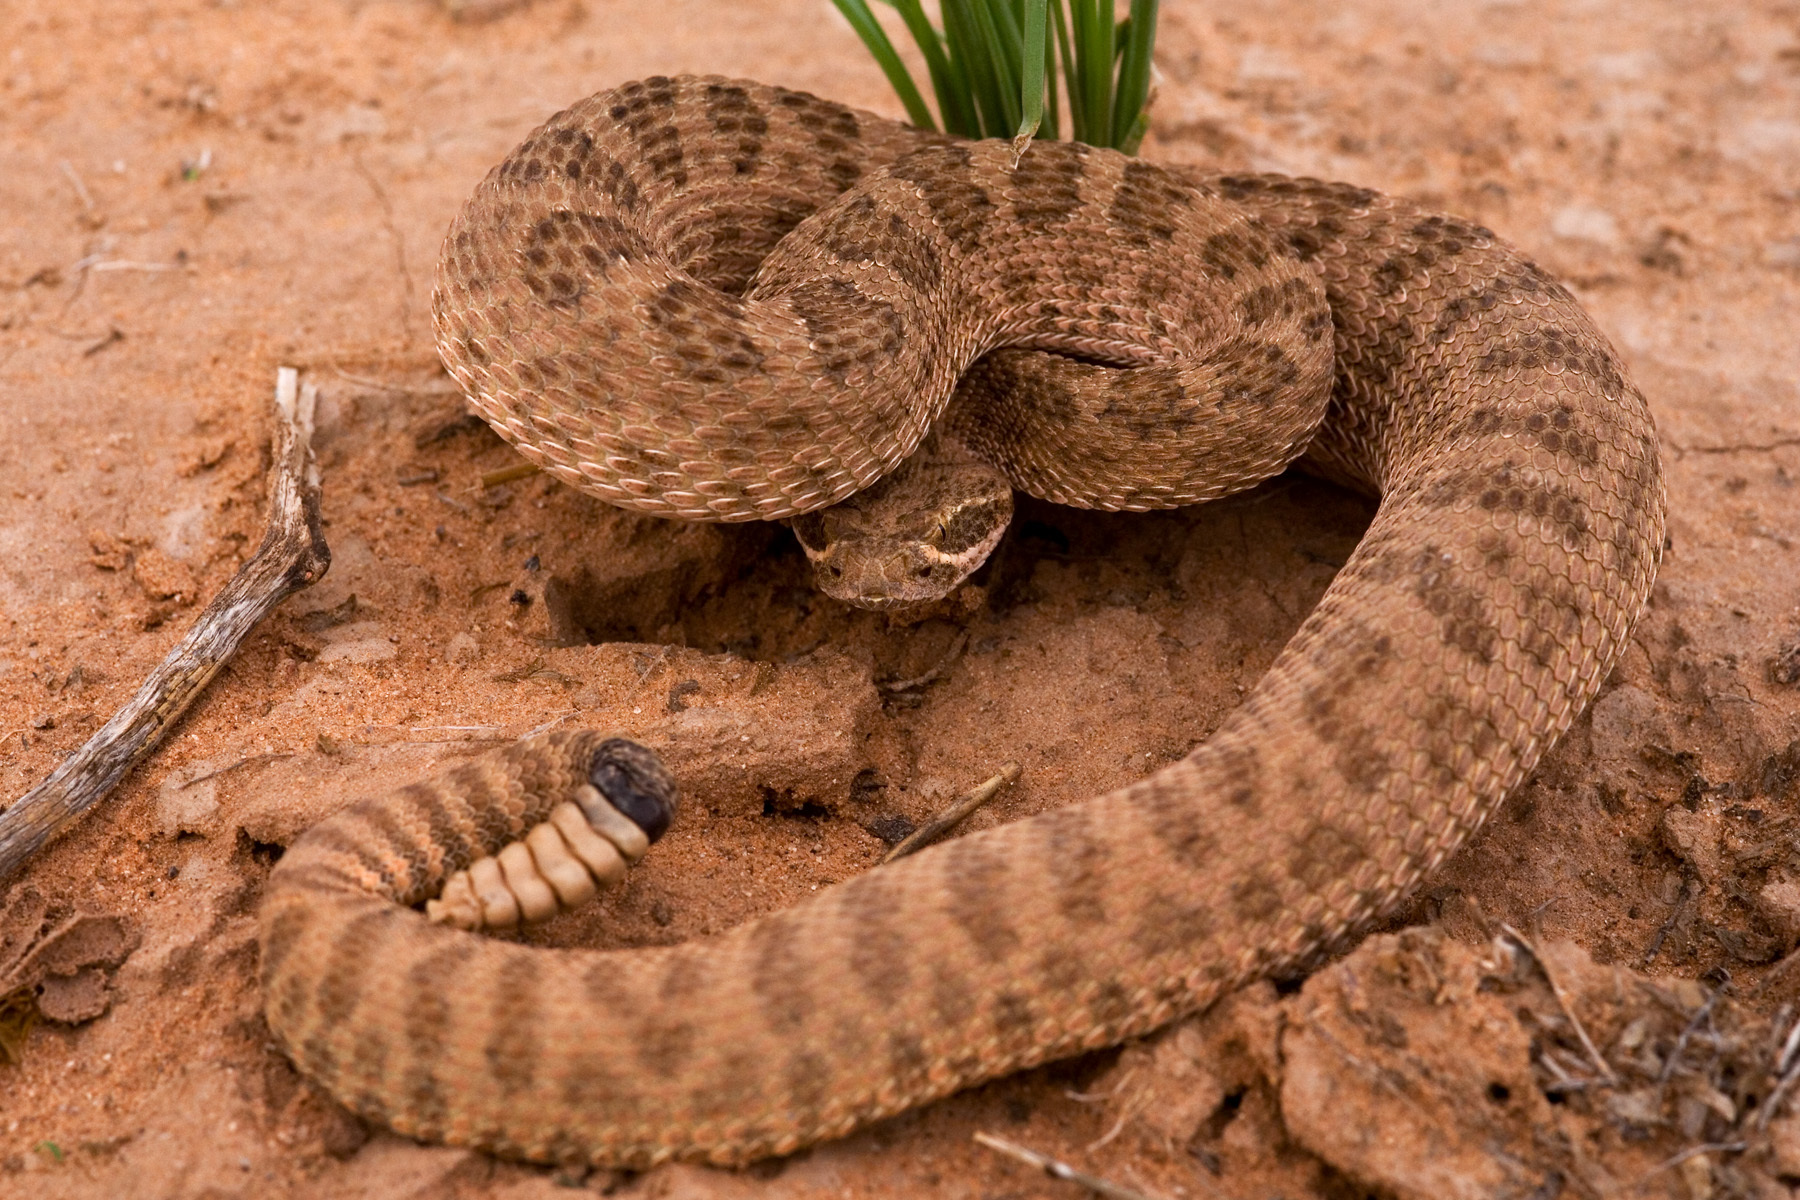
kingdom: Animalia
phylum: Chordata
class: Squamata
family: Viperidae
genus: Crotalus
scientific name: Crotalus viridis
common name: Prairie rattlesnake
